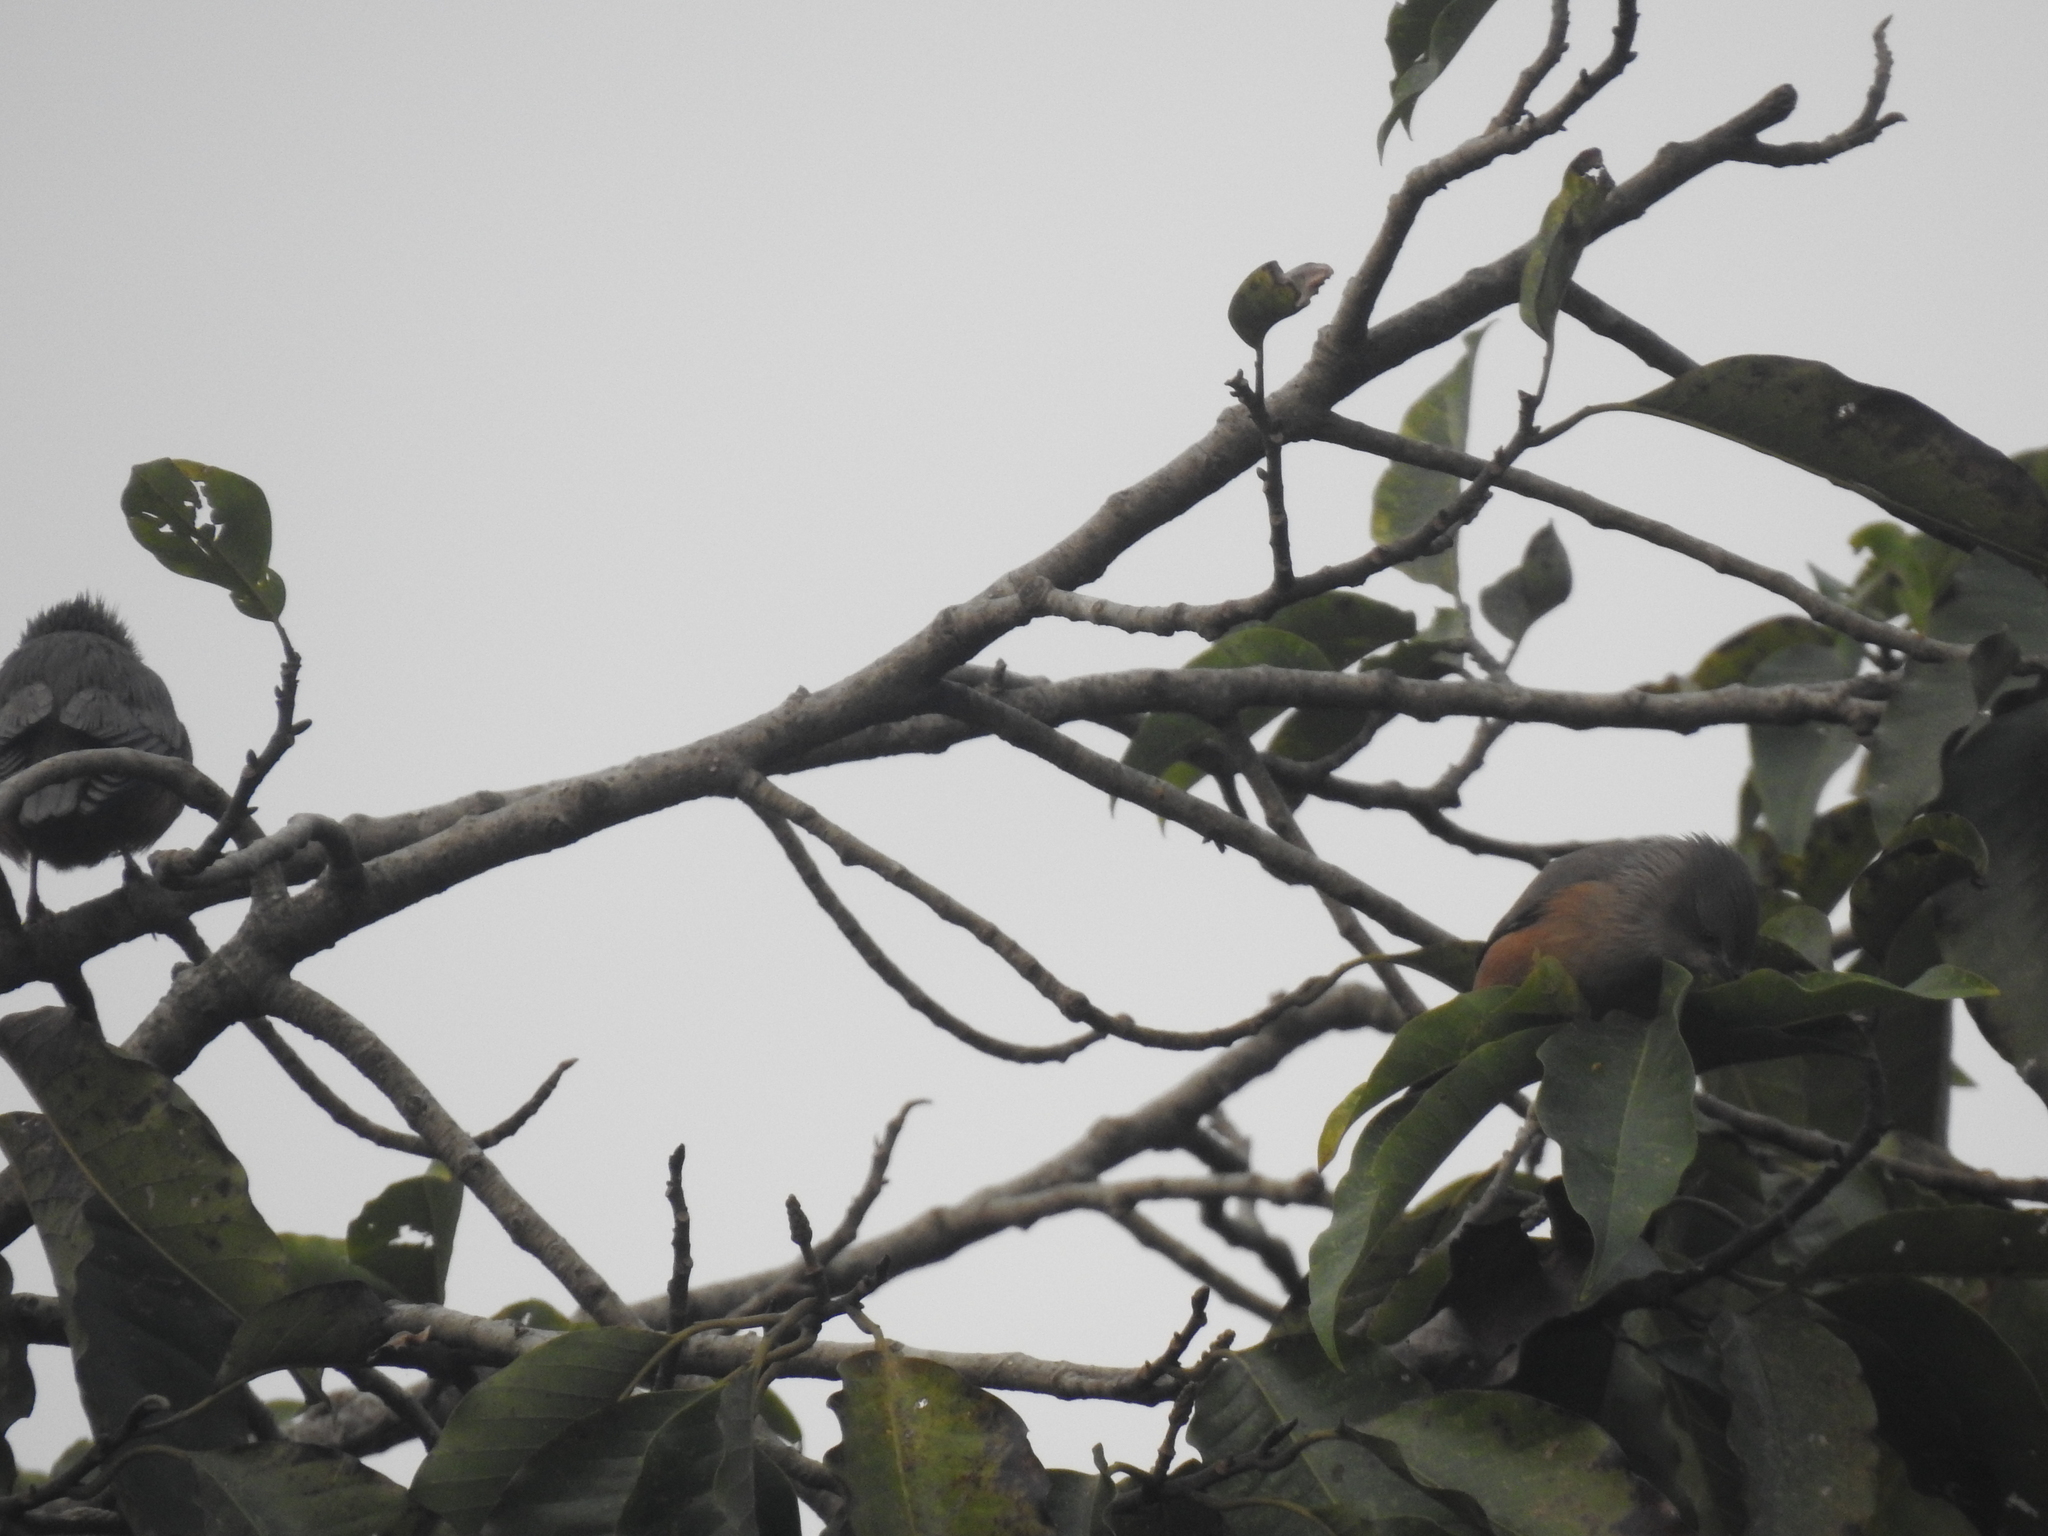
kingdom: Animalia
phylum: Chordata
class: Aves
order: Passeriformes
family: Sturnidae
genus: Sturnia
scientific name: Sturnia malabarica
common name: Chestnut-tailed starling
